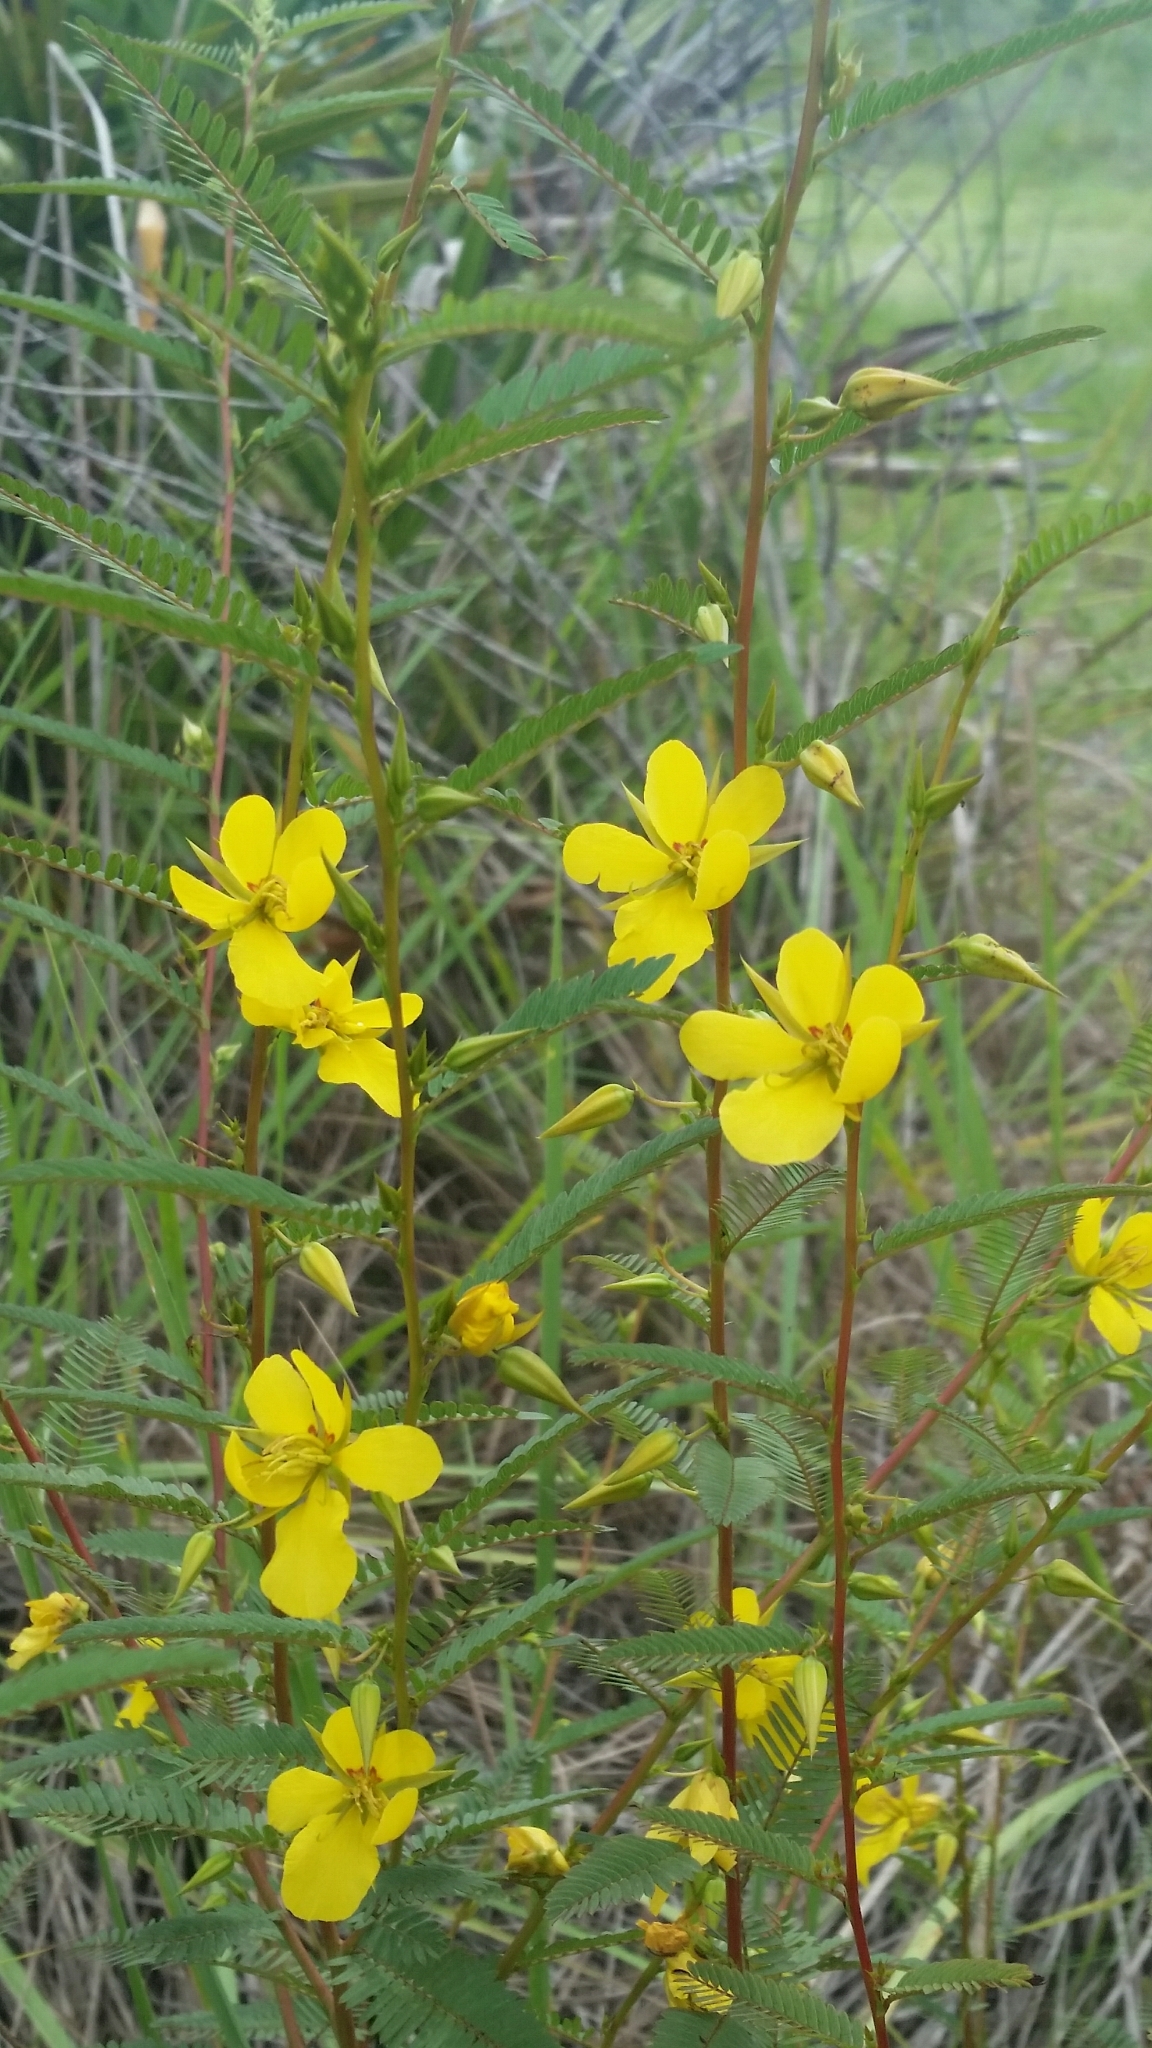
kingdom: Plantae
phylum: Tracheophyta
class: Magnoliopsida
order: Fabales
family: Fabaceae
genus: Chamaecrista
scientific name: Chamaecrista fasciculata
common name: Golden cassia
